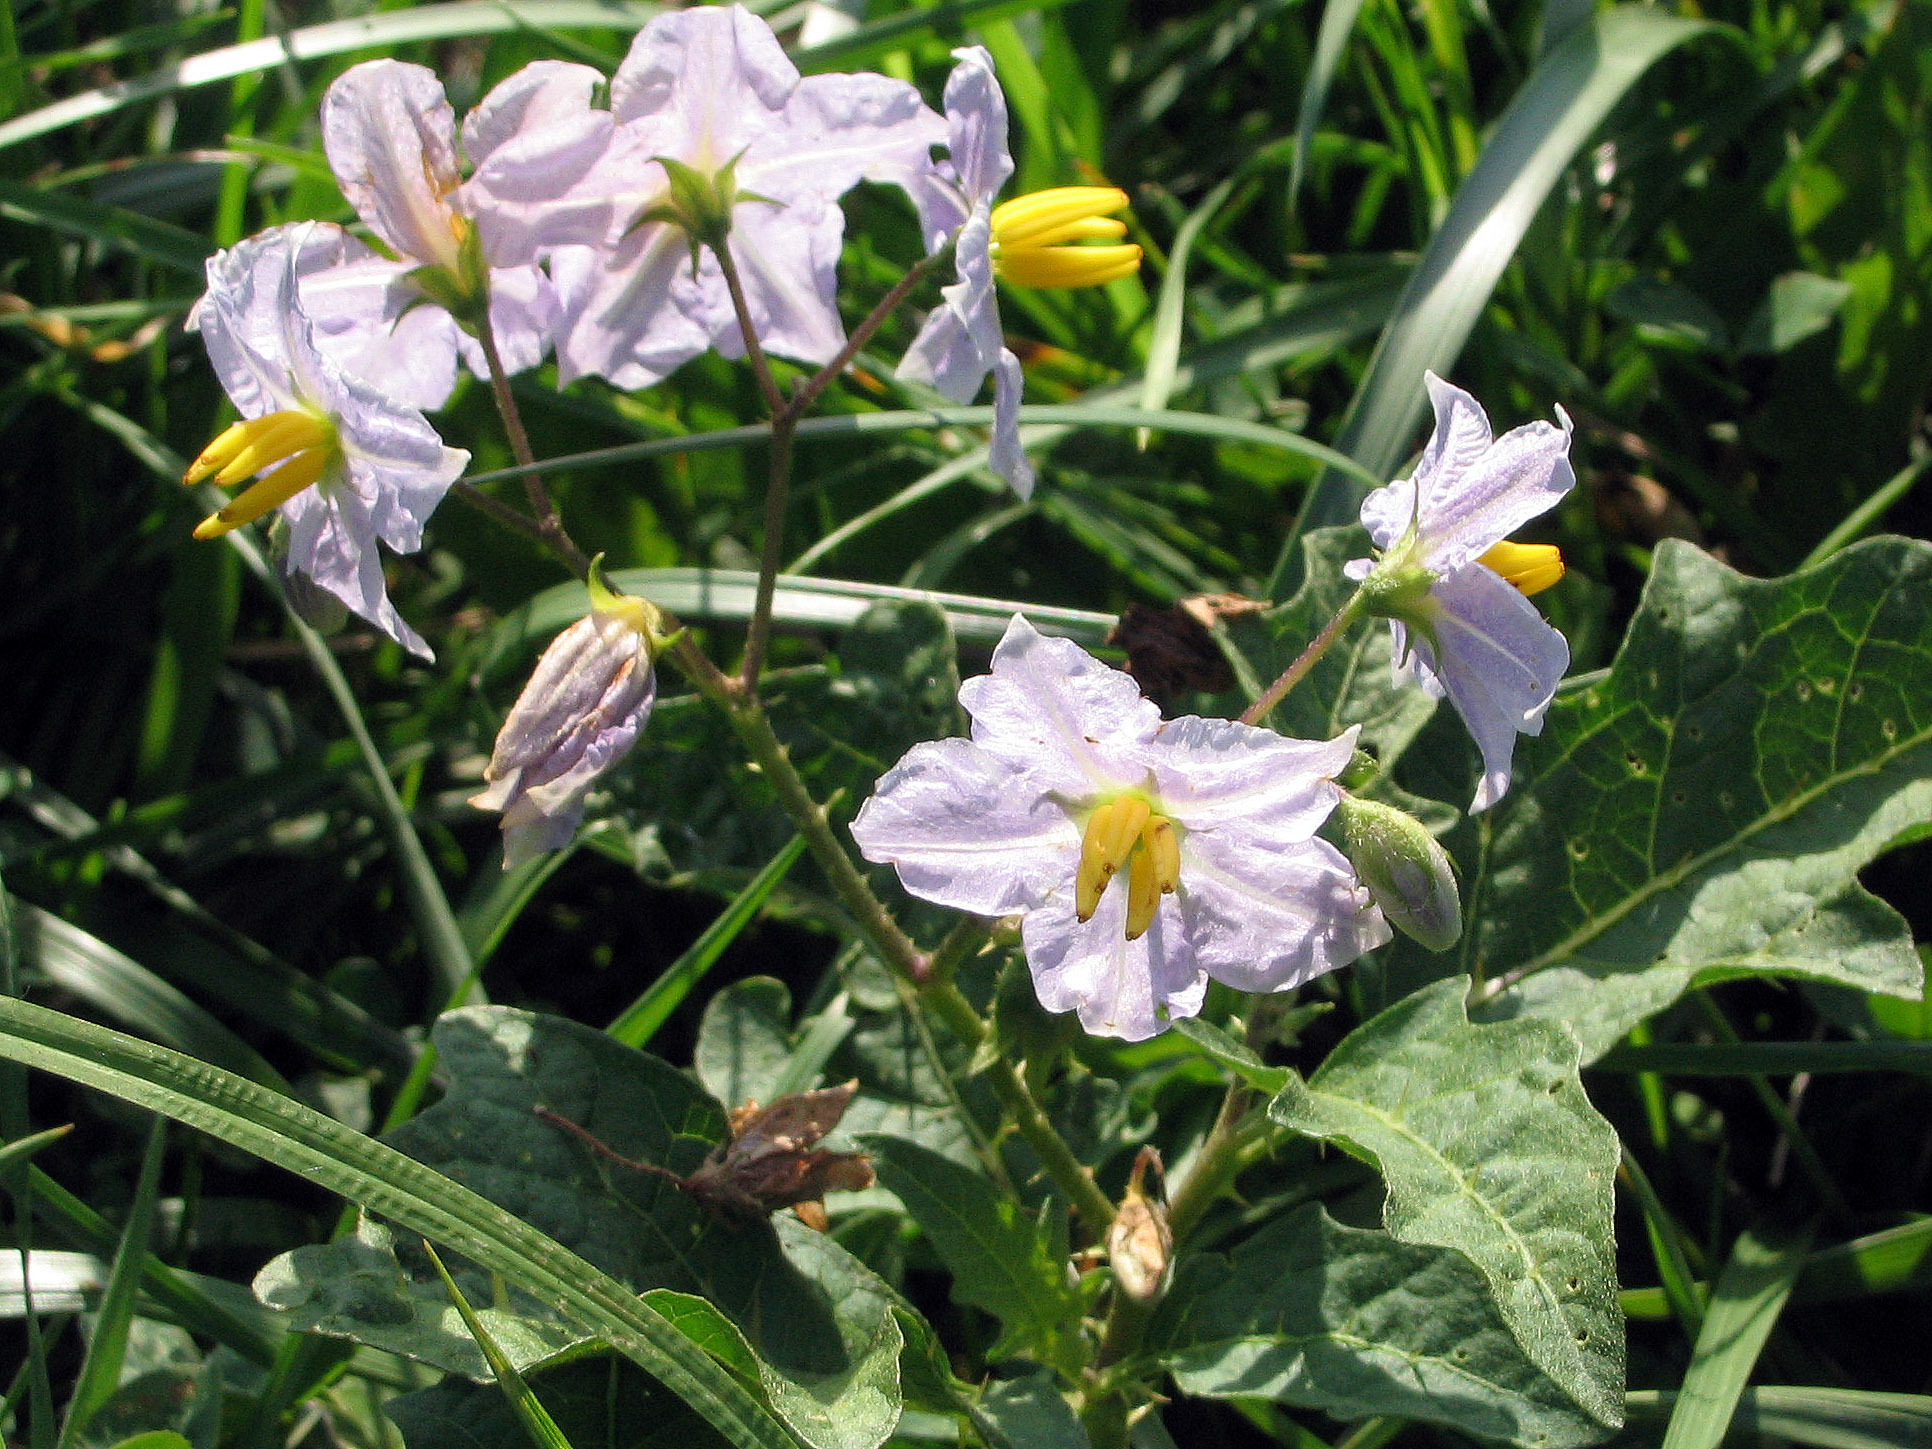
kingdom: Plantae
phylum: Tracheophyta
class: Magnoliopsida
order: Solanales
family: Solanaceae
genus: Solanum
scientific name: Solanum carolinense
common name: Horse-nettle
